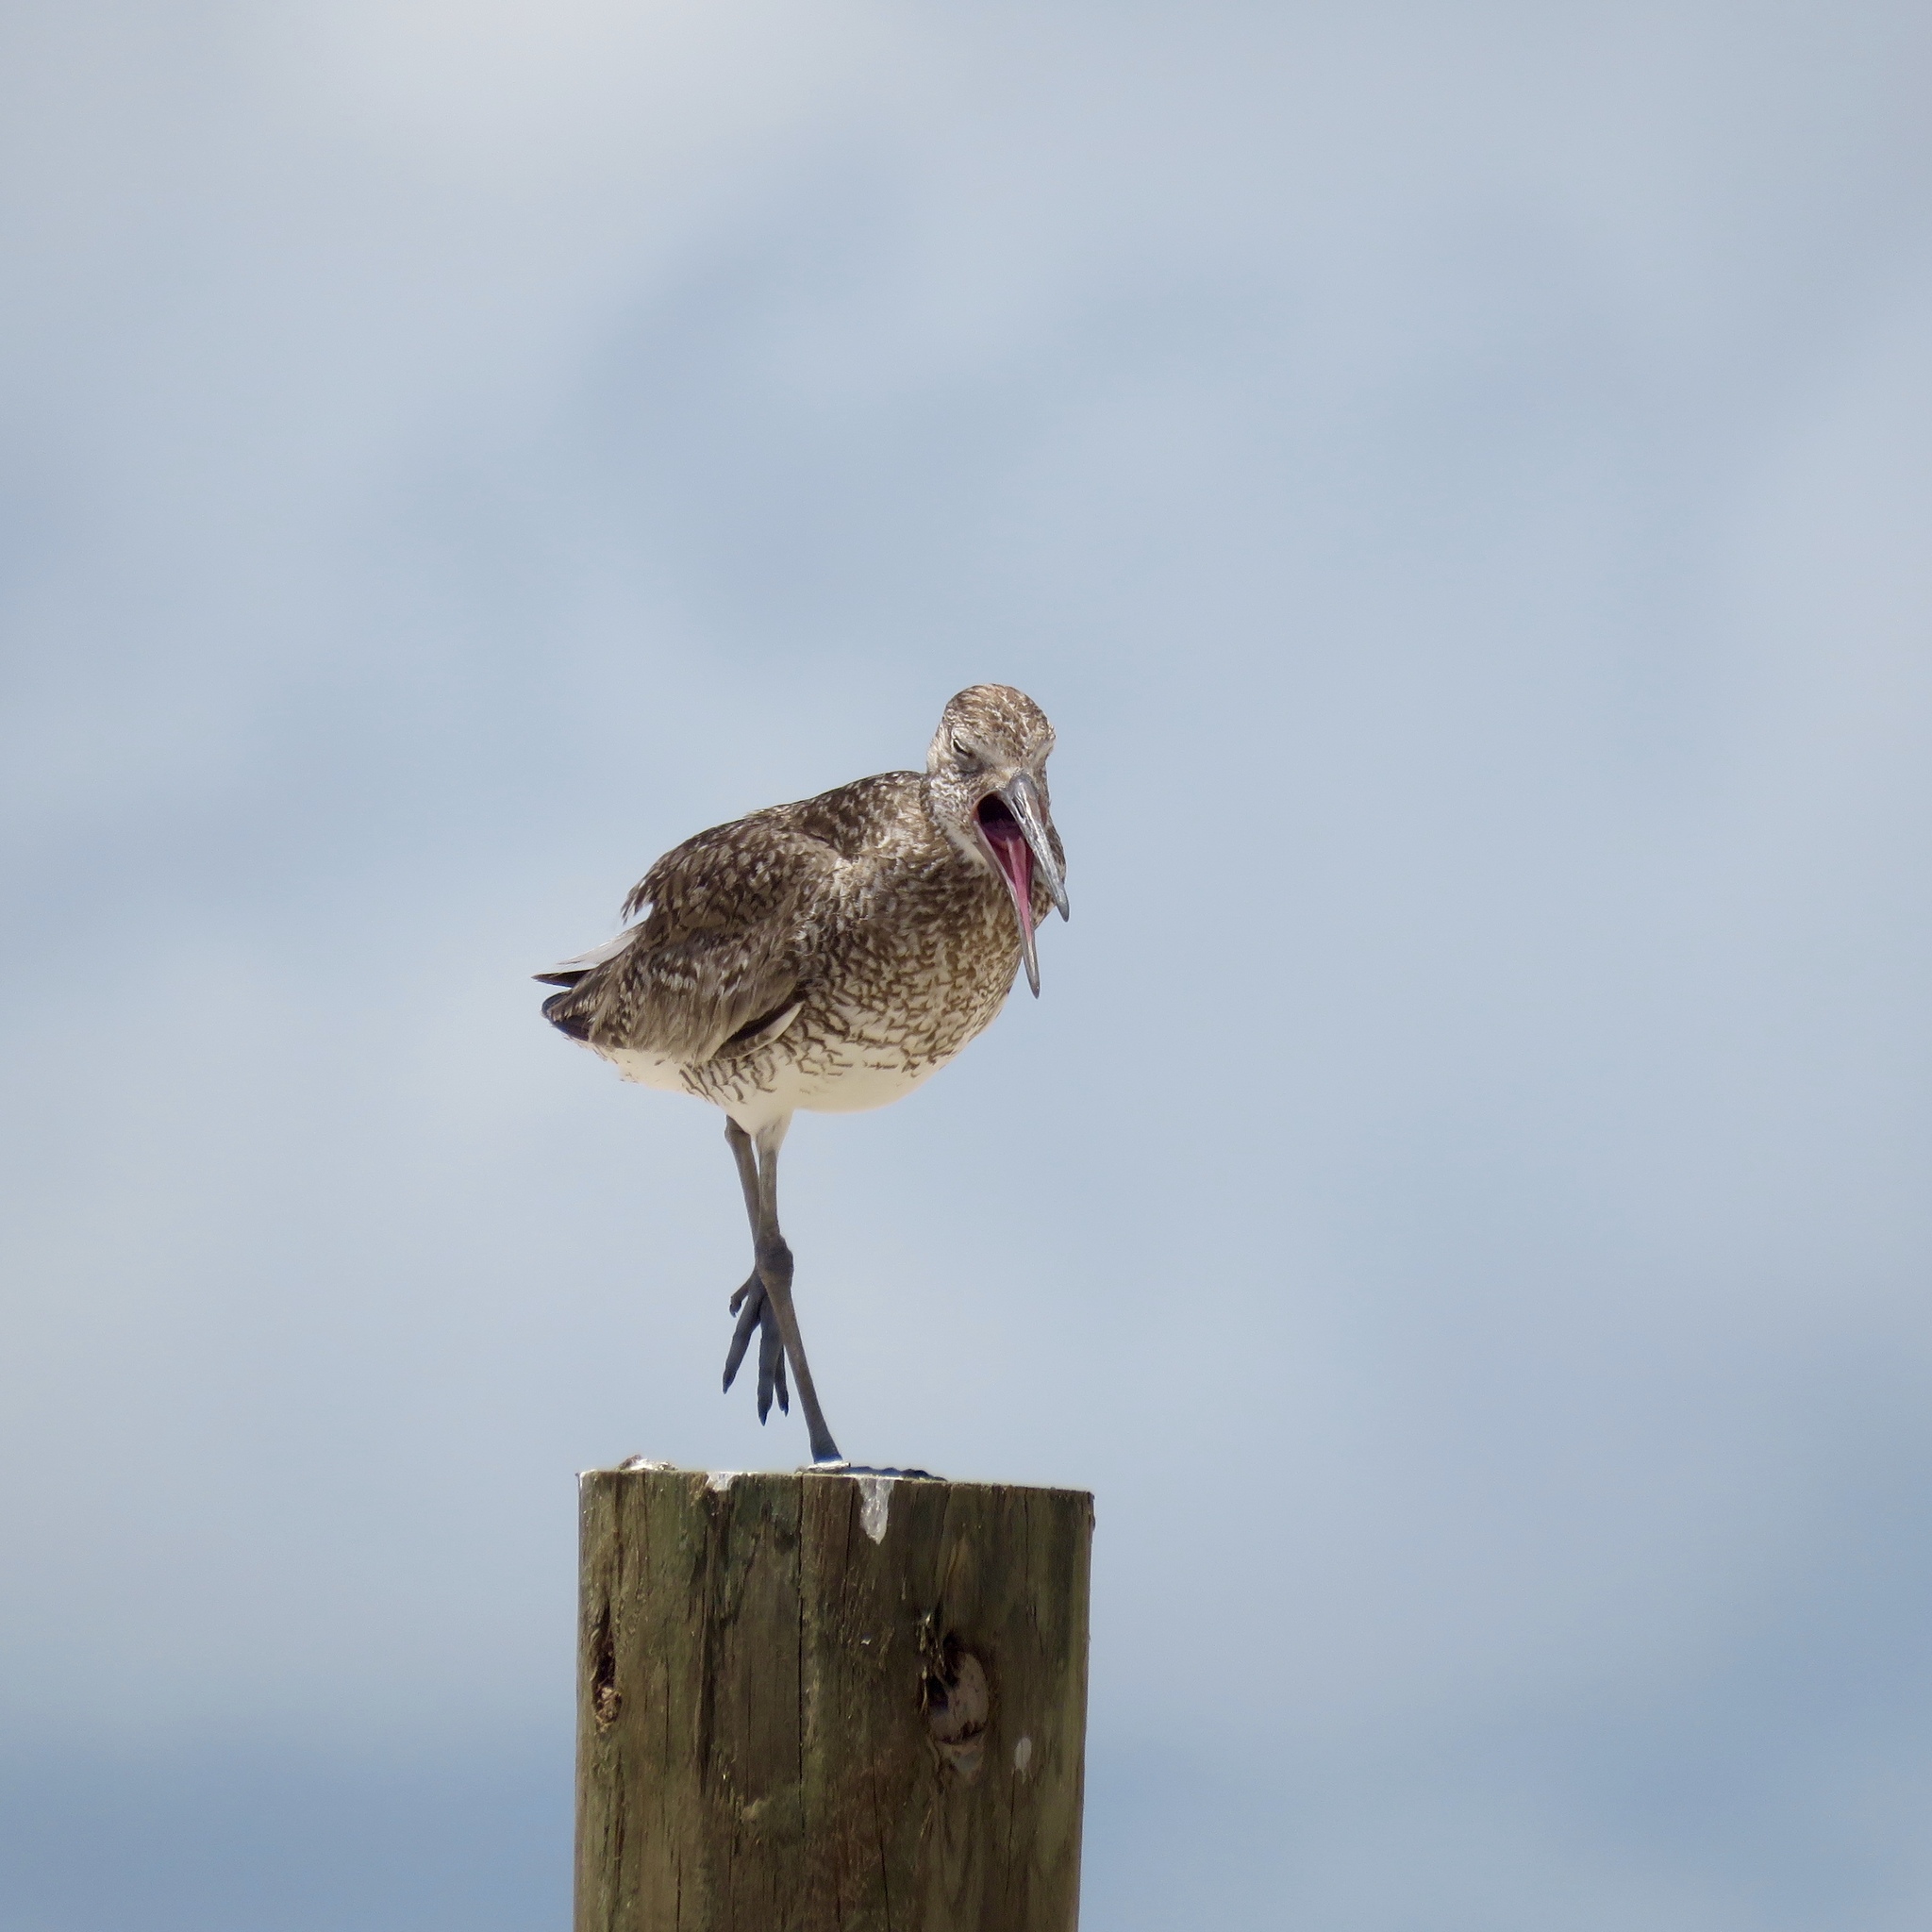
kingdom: Animalia
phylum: Chordata
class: Aves
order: Charadriiformes
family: Scolopacidae
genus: Tringa
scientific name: Tringa semipalmata
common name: Willet
